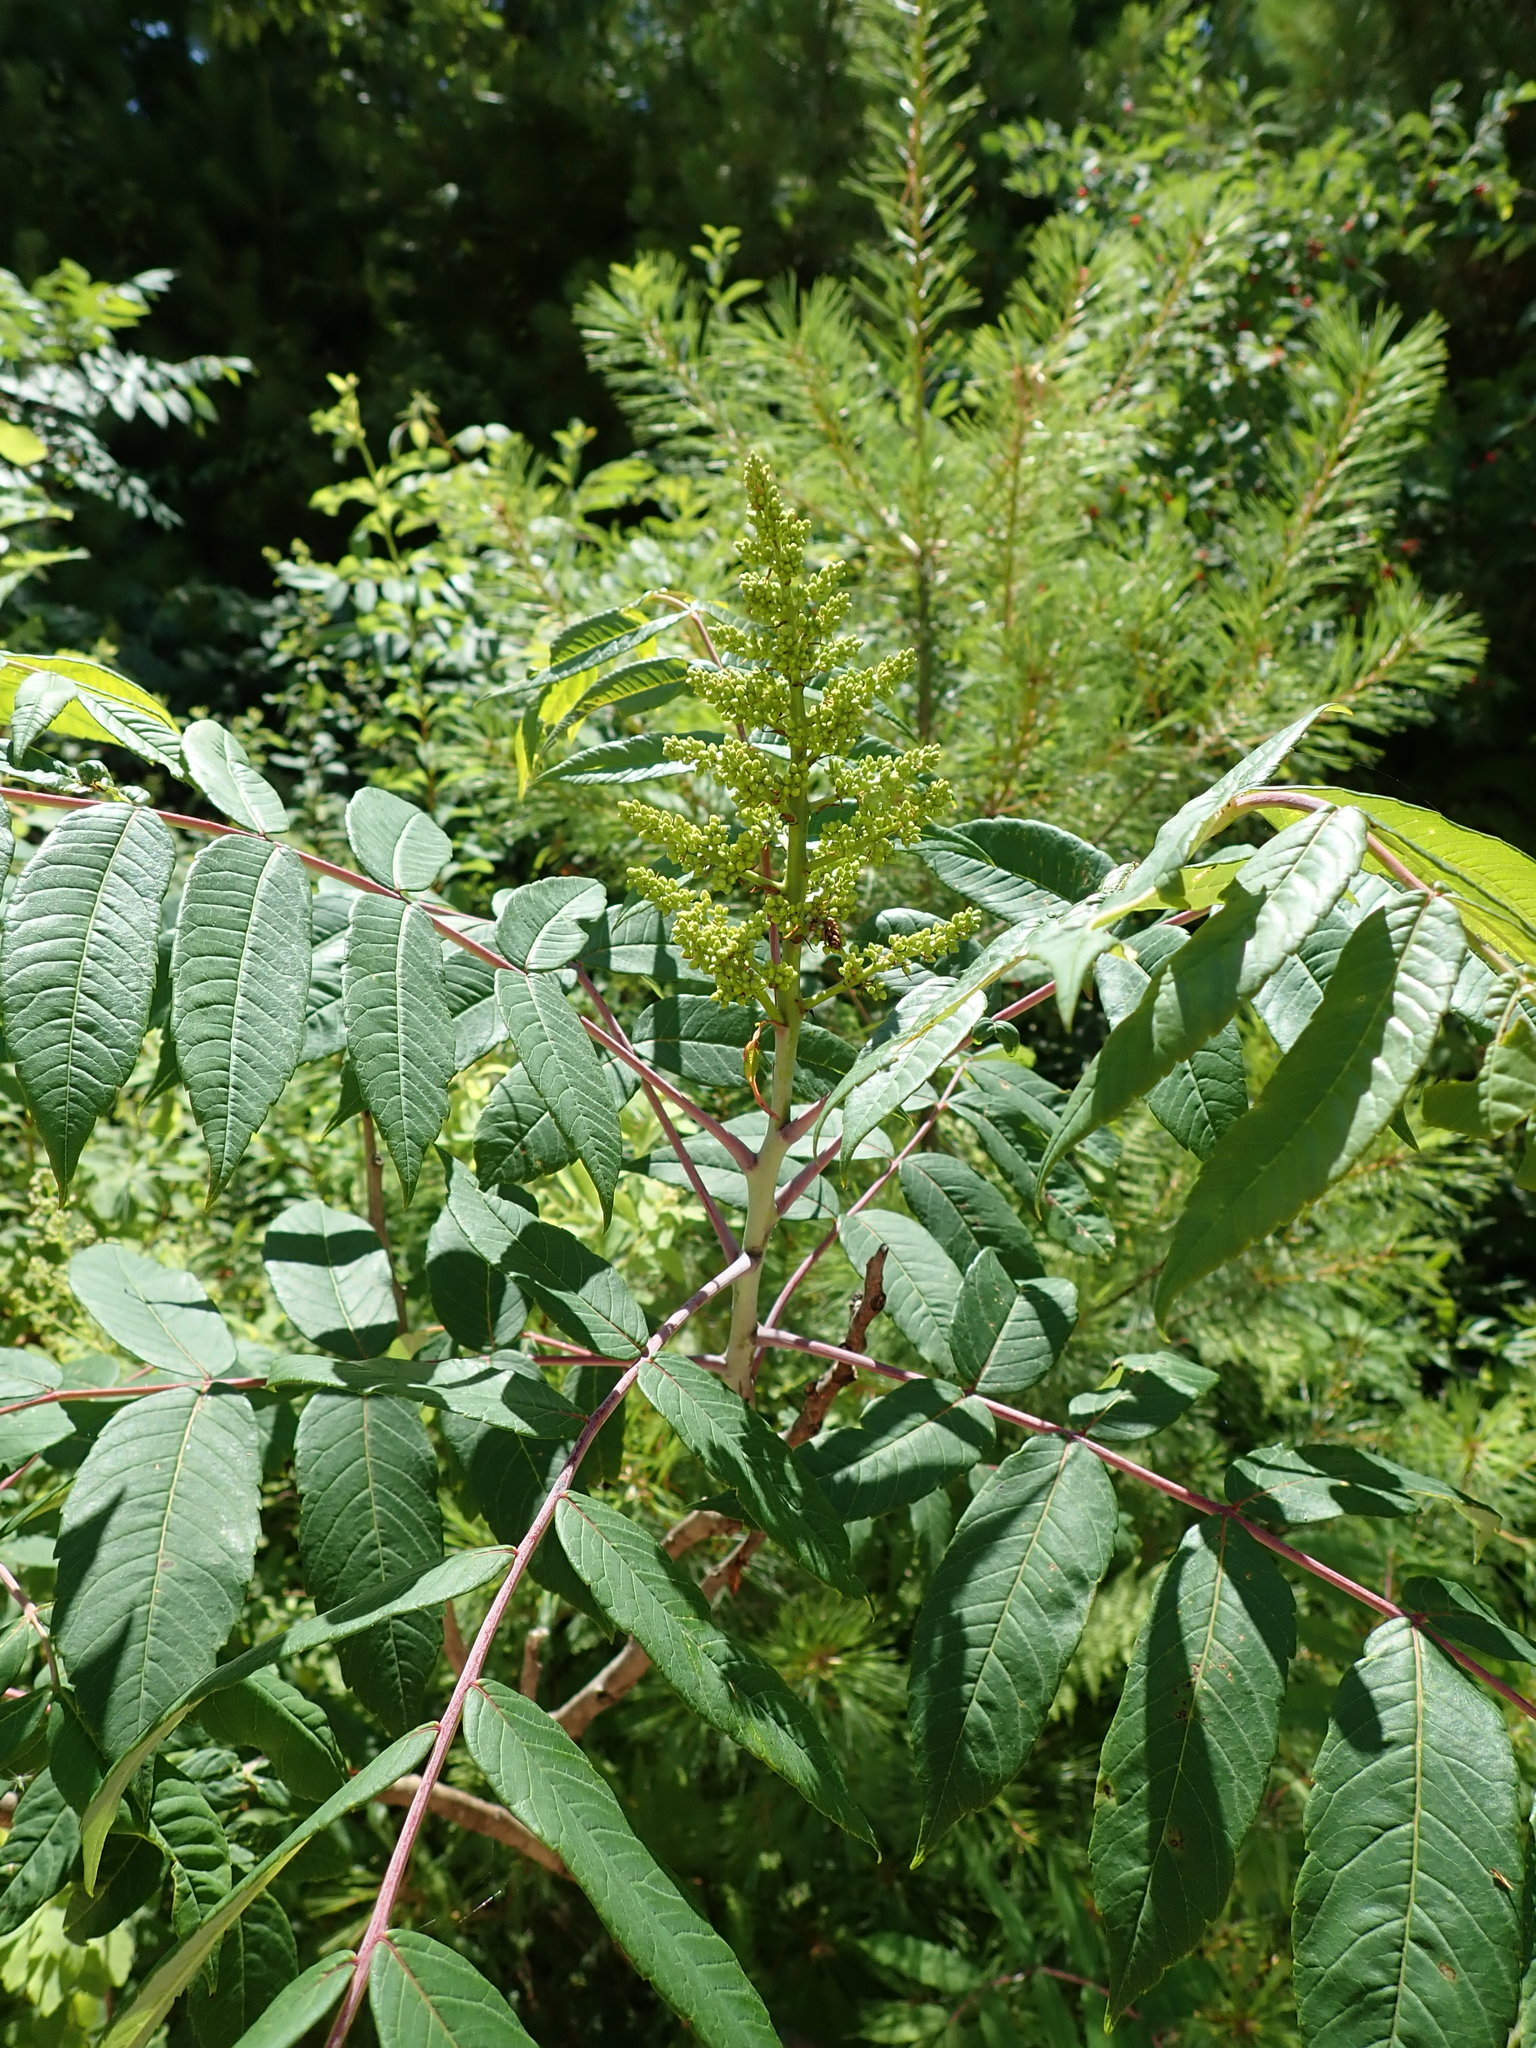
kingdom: Plantae
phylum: Tracheophyta
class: Magnoliopsida
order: Sapindales
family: Anacardiaceae
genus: Rhus
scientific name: Rhus glabra
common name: Scarlet sumac
